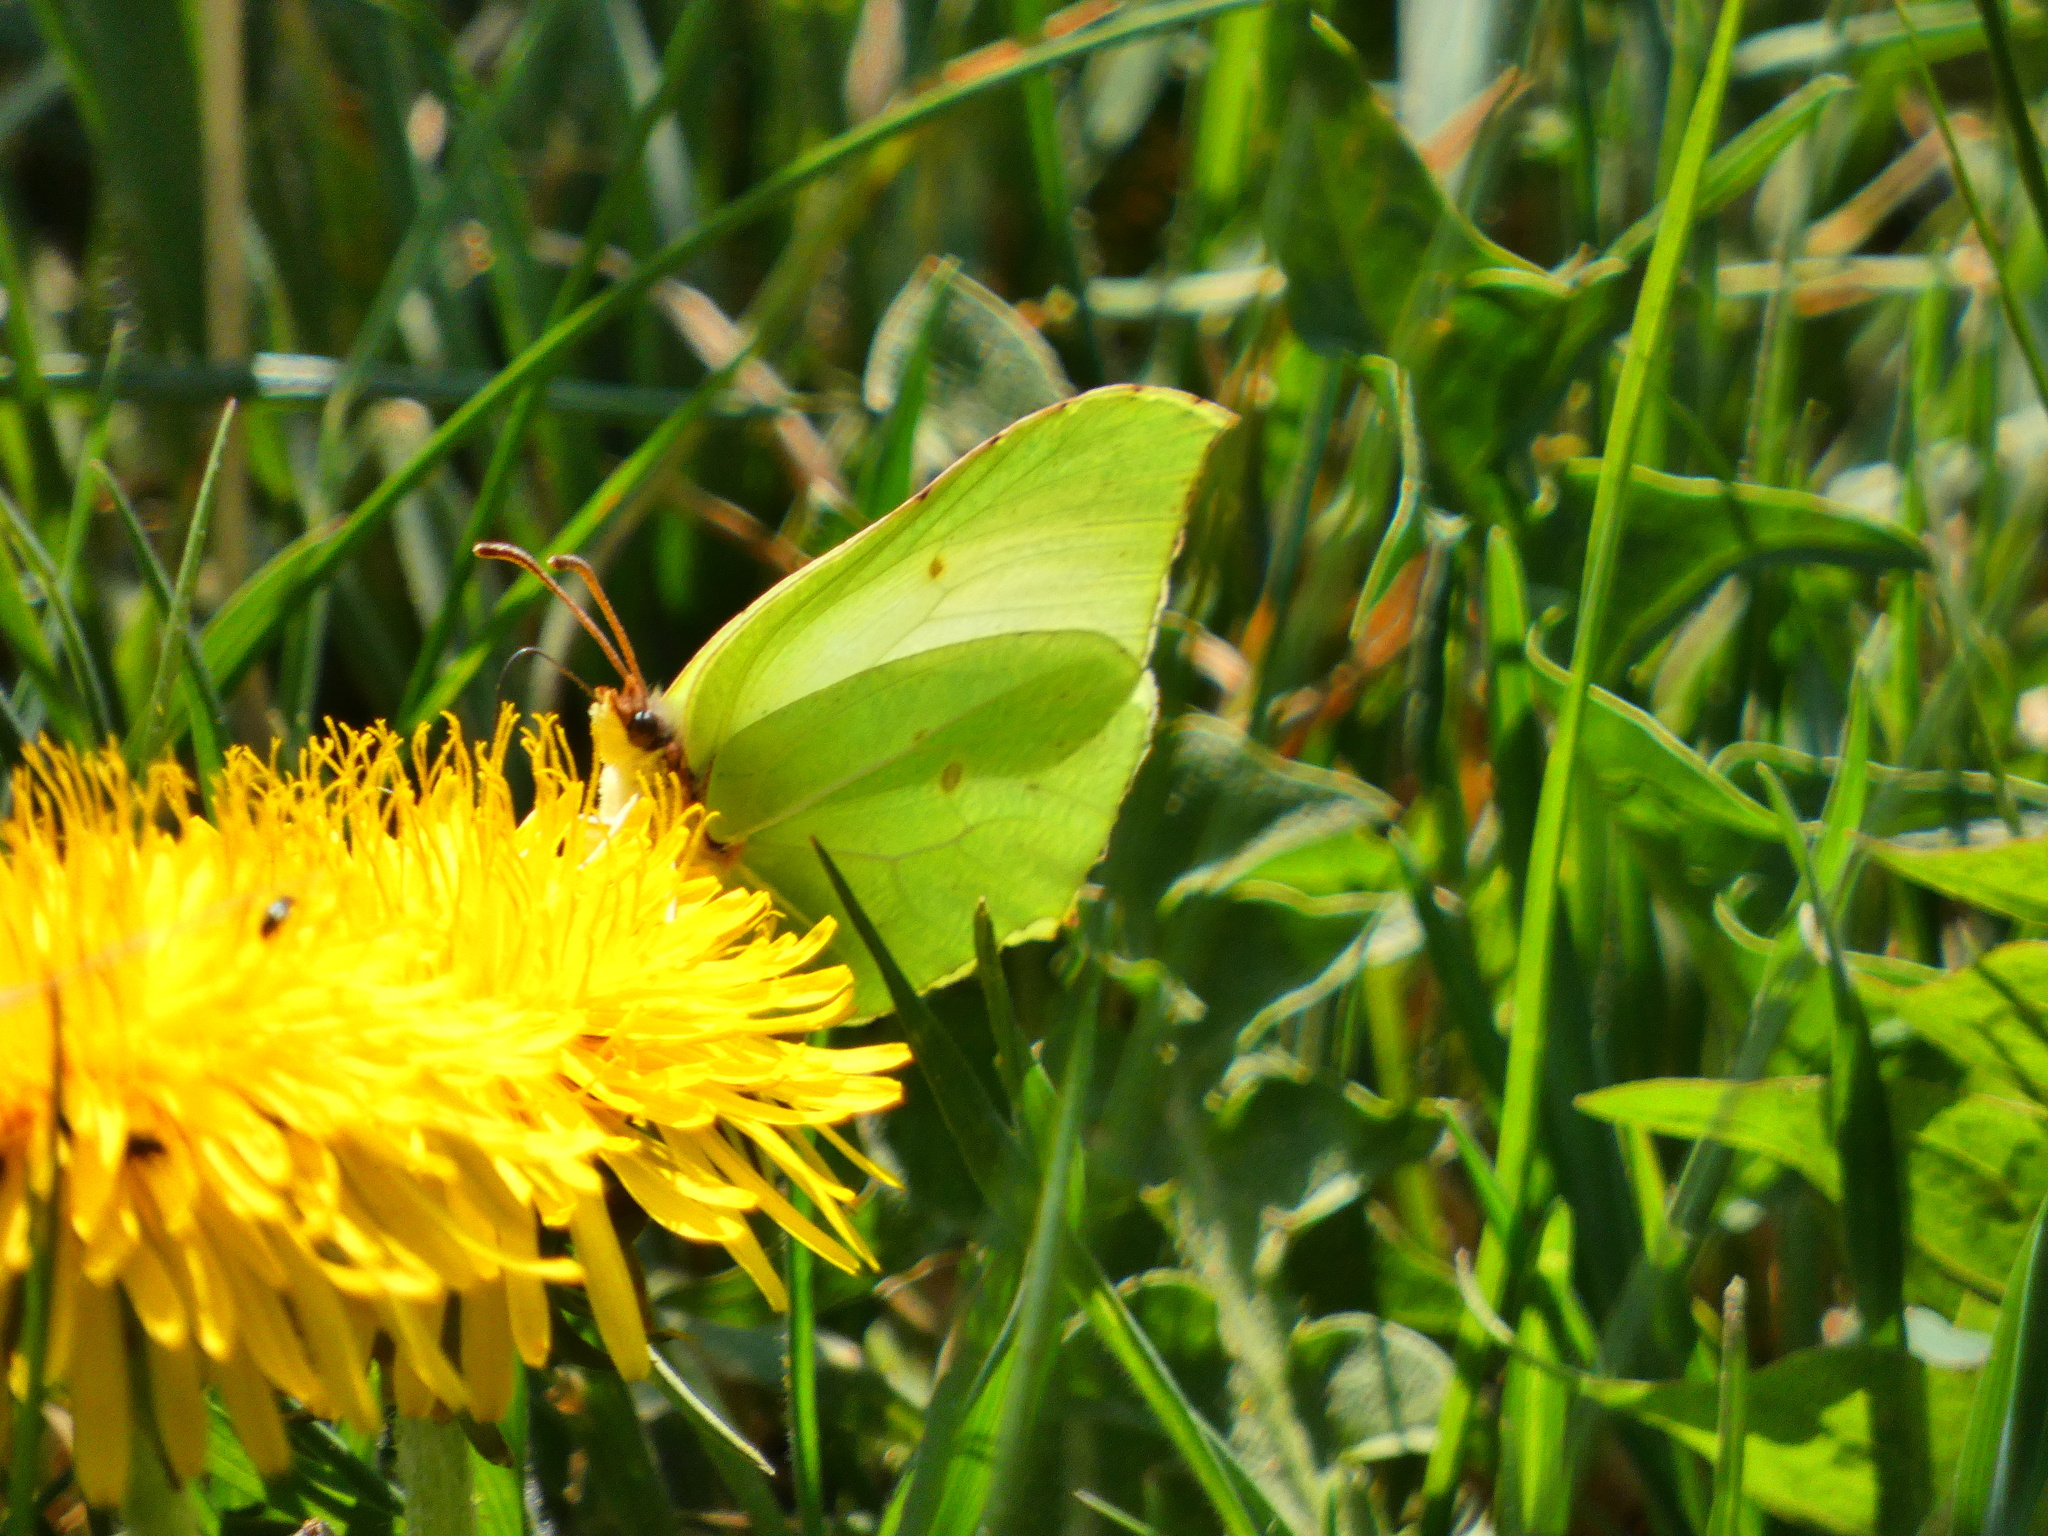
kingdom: Animalia
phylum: Arthropoda
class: Insecta
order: Lepidoptera
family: Pieridae
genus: Gonepteryx
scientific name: Gonepteryx rhamni
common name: Brimstone
